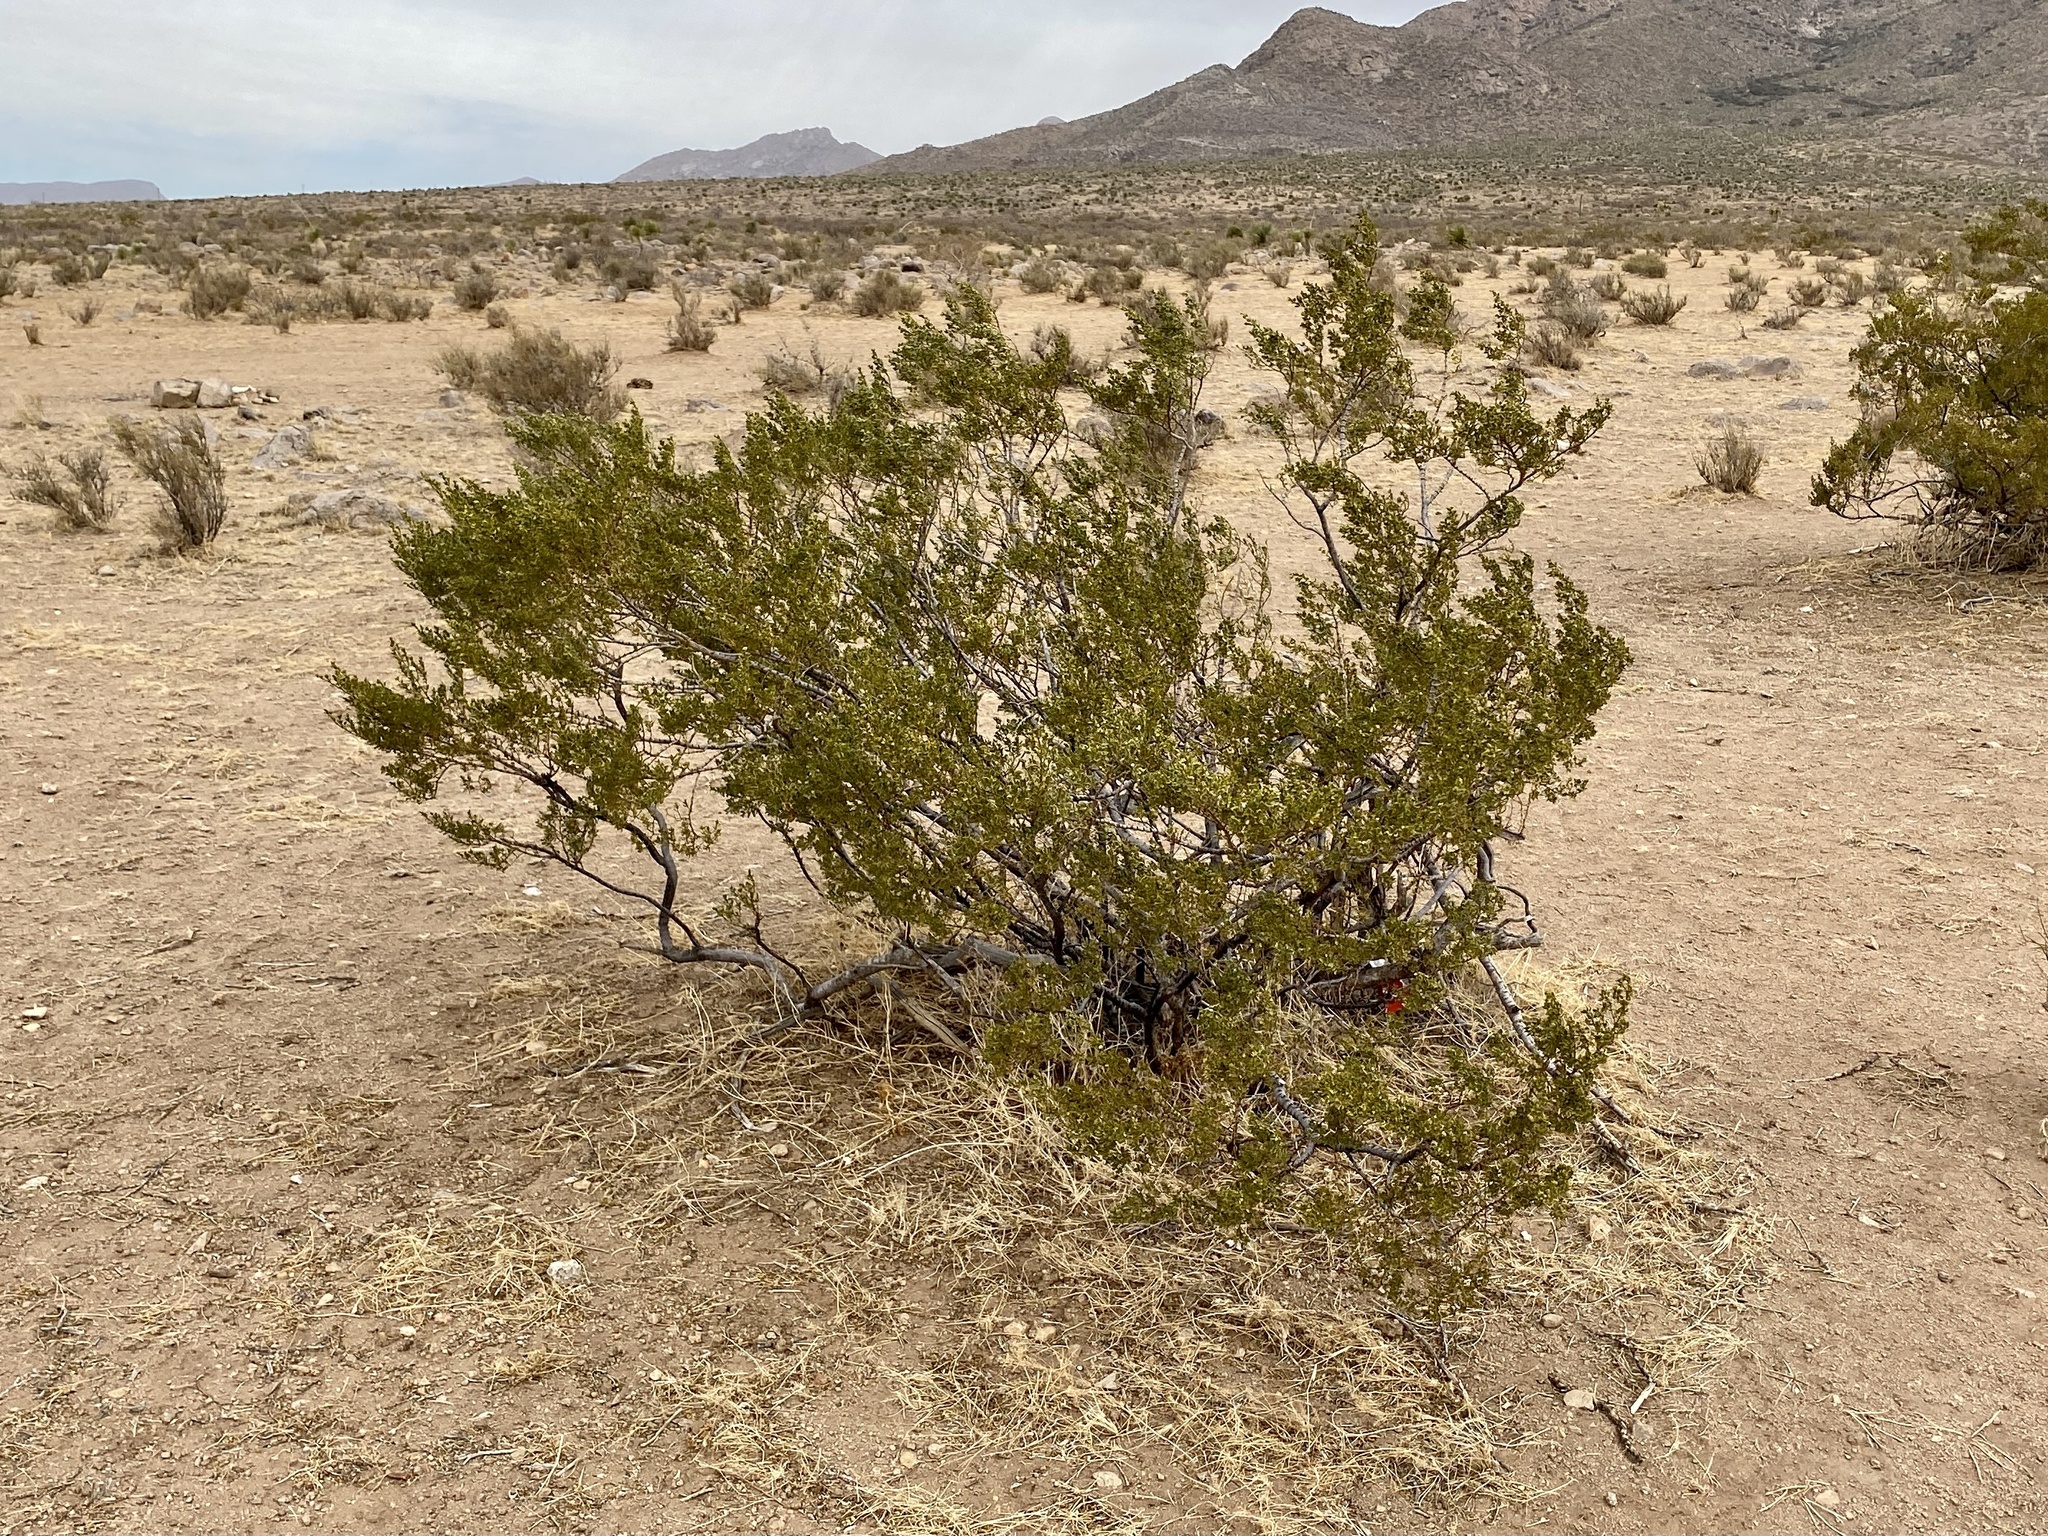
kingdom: Plantae
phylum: Tracheophyta
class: Magnoliopsida
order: Zygophyllales
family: Zygophyllaceae
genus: Larrea
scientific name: Larrea tridentata
